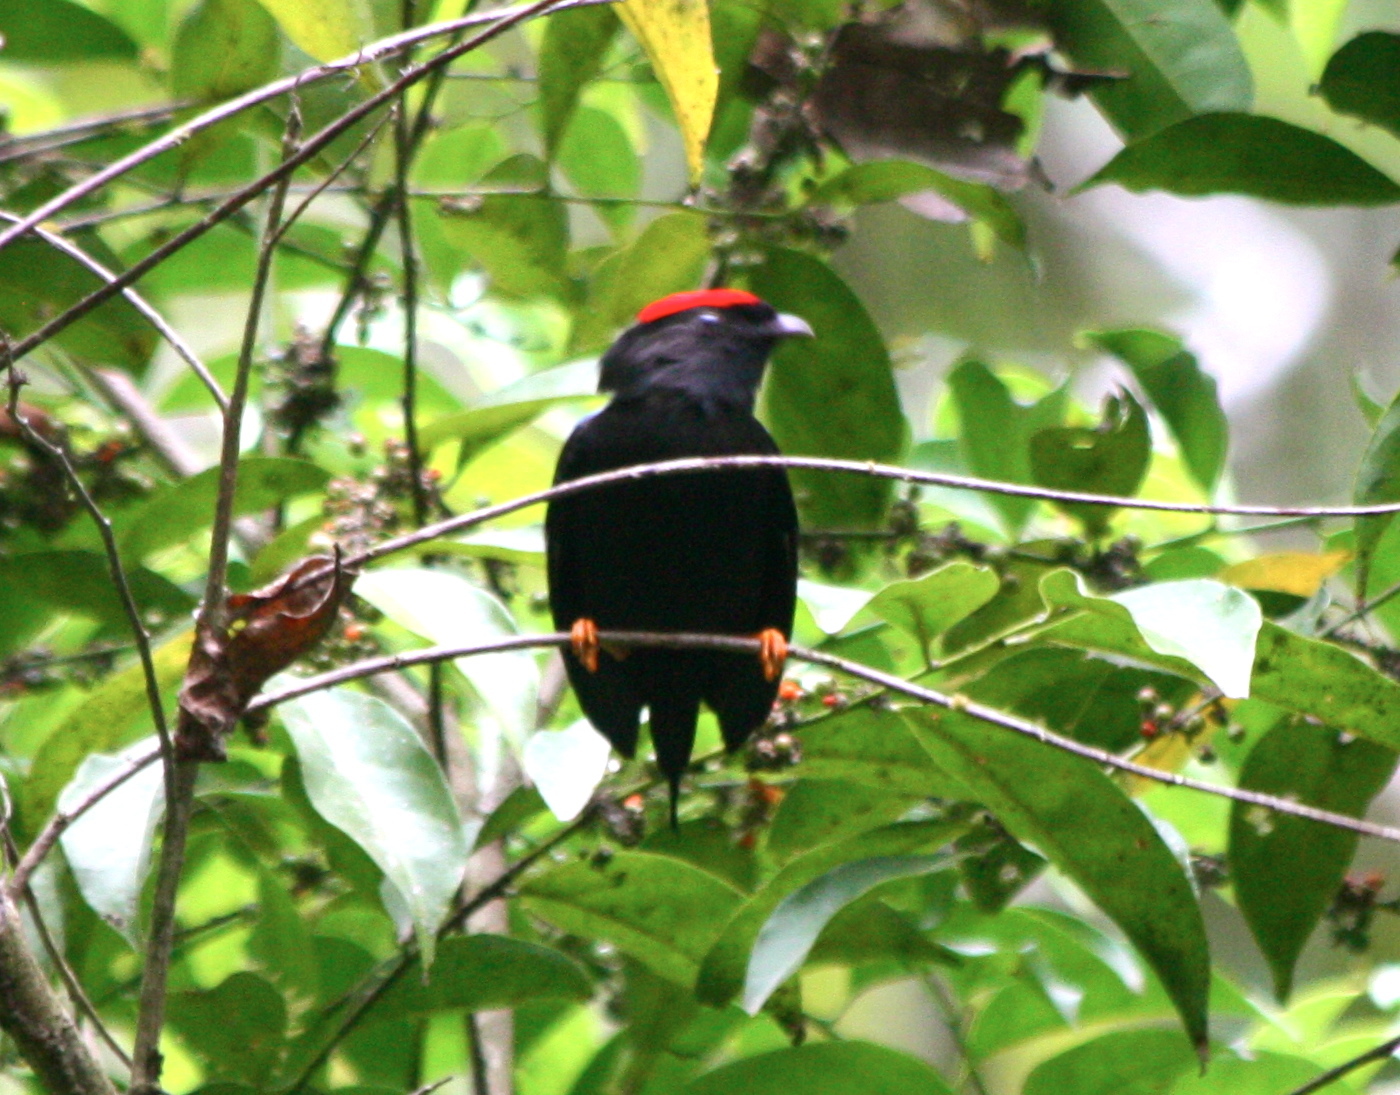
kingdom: Animalia
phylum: Chordata
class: Aves
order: Passeriformes
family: Pipridae
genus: Chiroxiphia
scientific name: Chiroxiphia lanceolata
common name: Lance-tailed manakin
